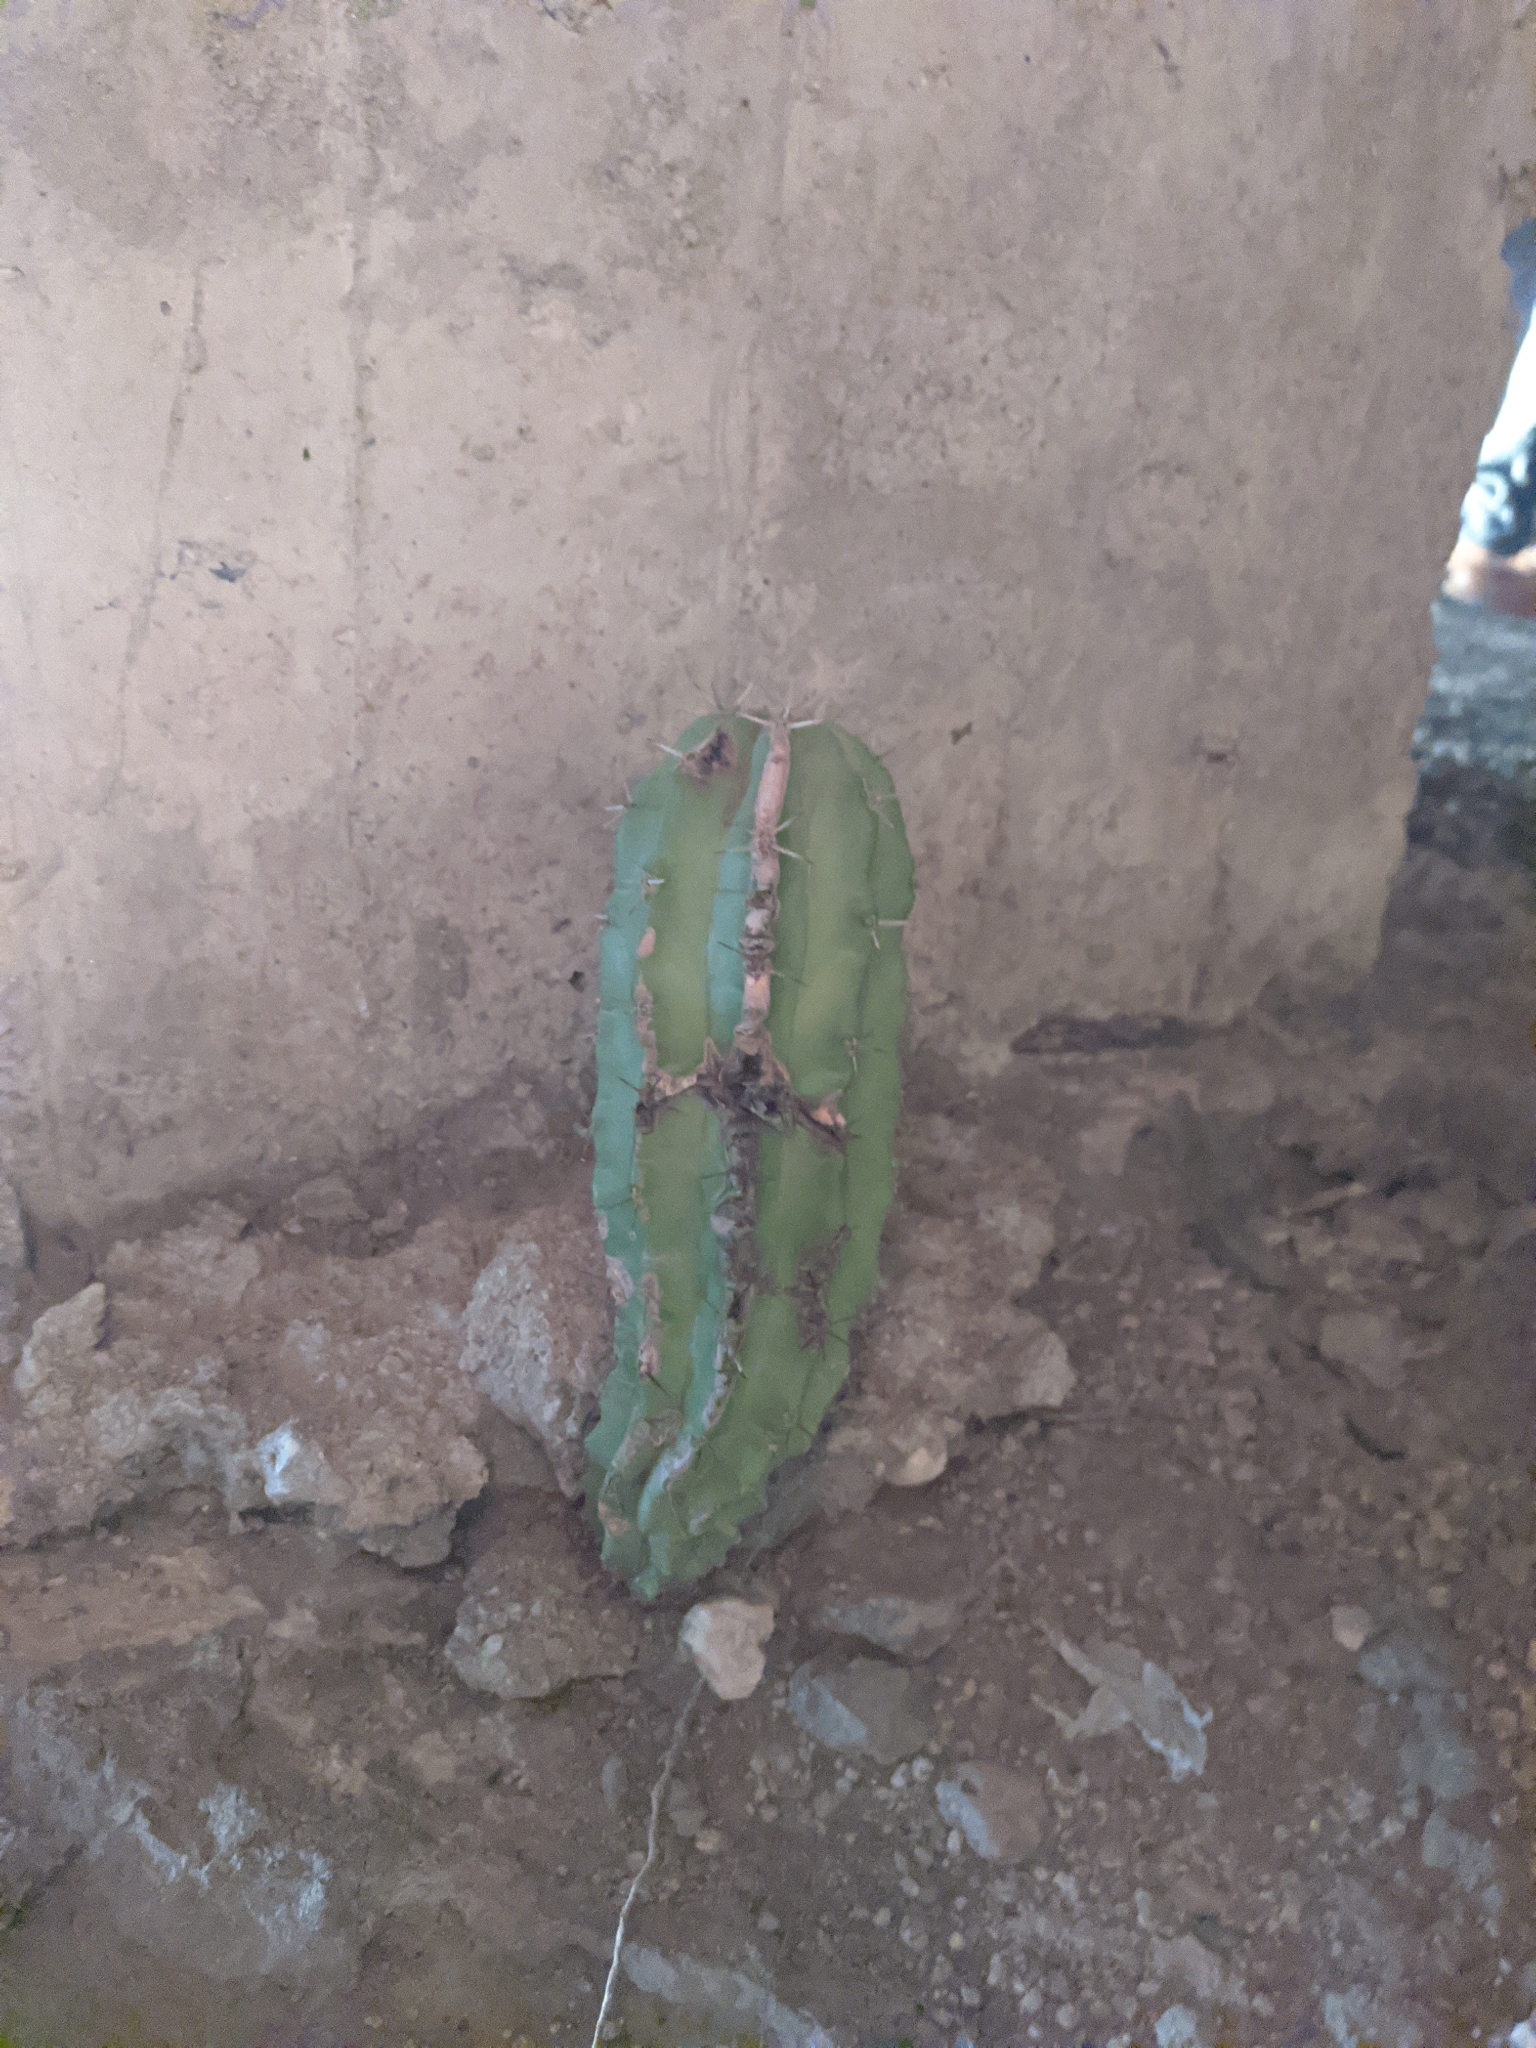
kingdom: Plantae
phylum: Tracheophyta
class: Magnoliopsida
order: Caryophyllales
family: Cactaceae
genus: Stenocereus
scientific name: Stenocereus griseus
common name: Tall candelabra cactus
